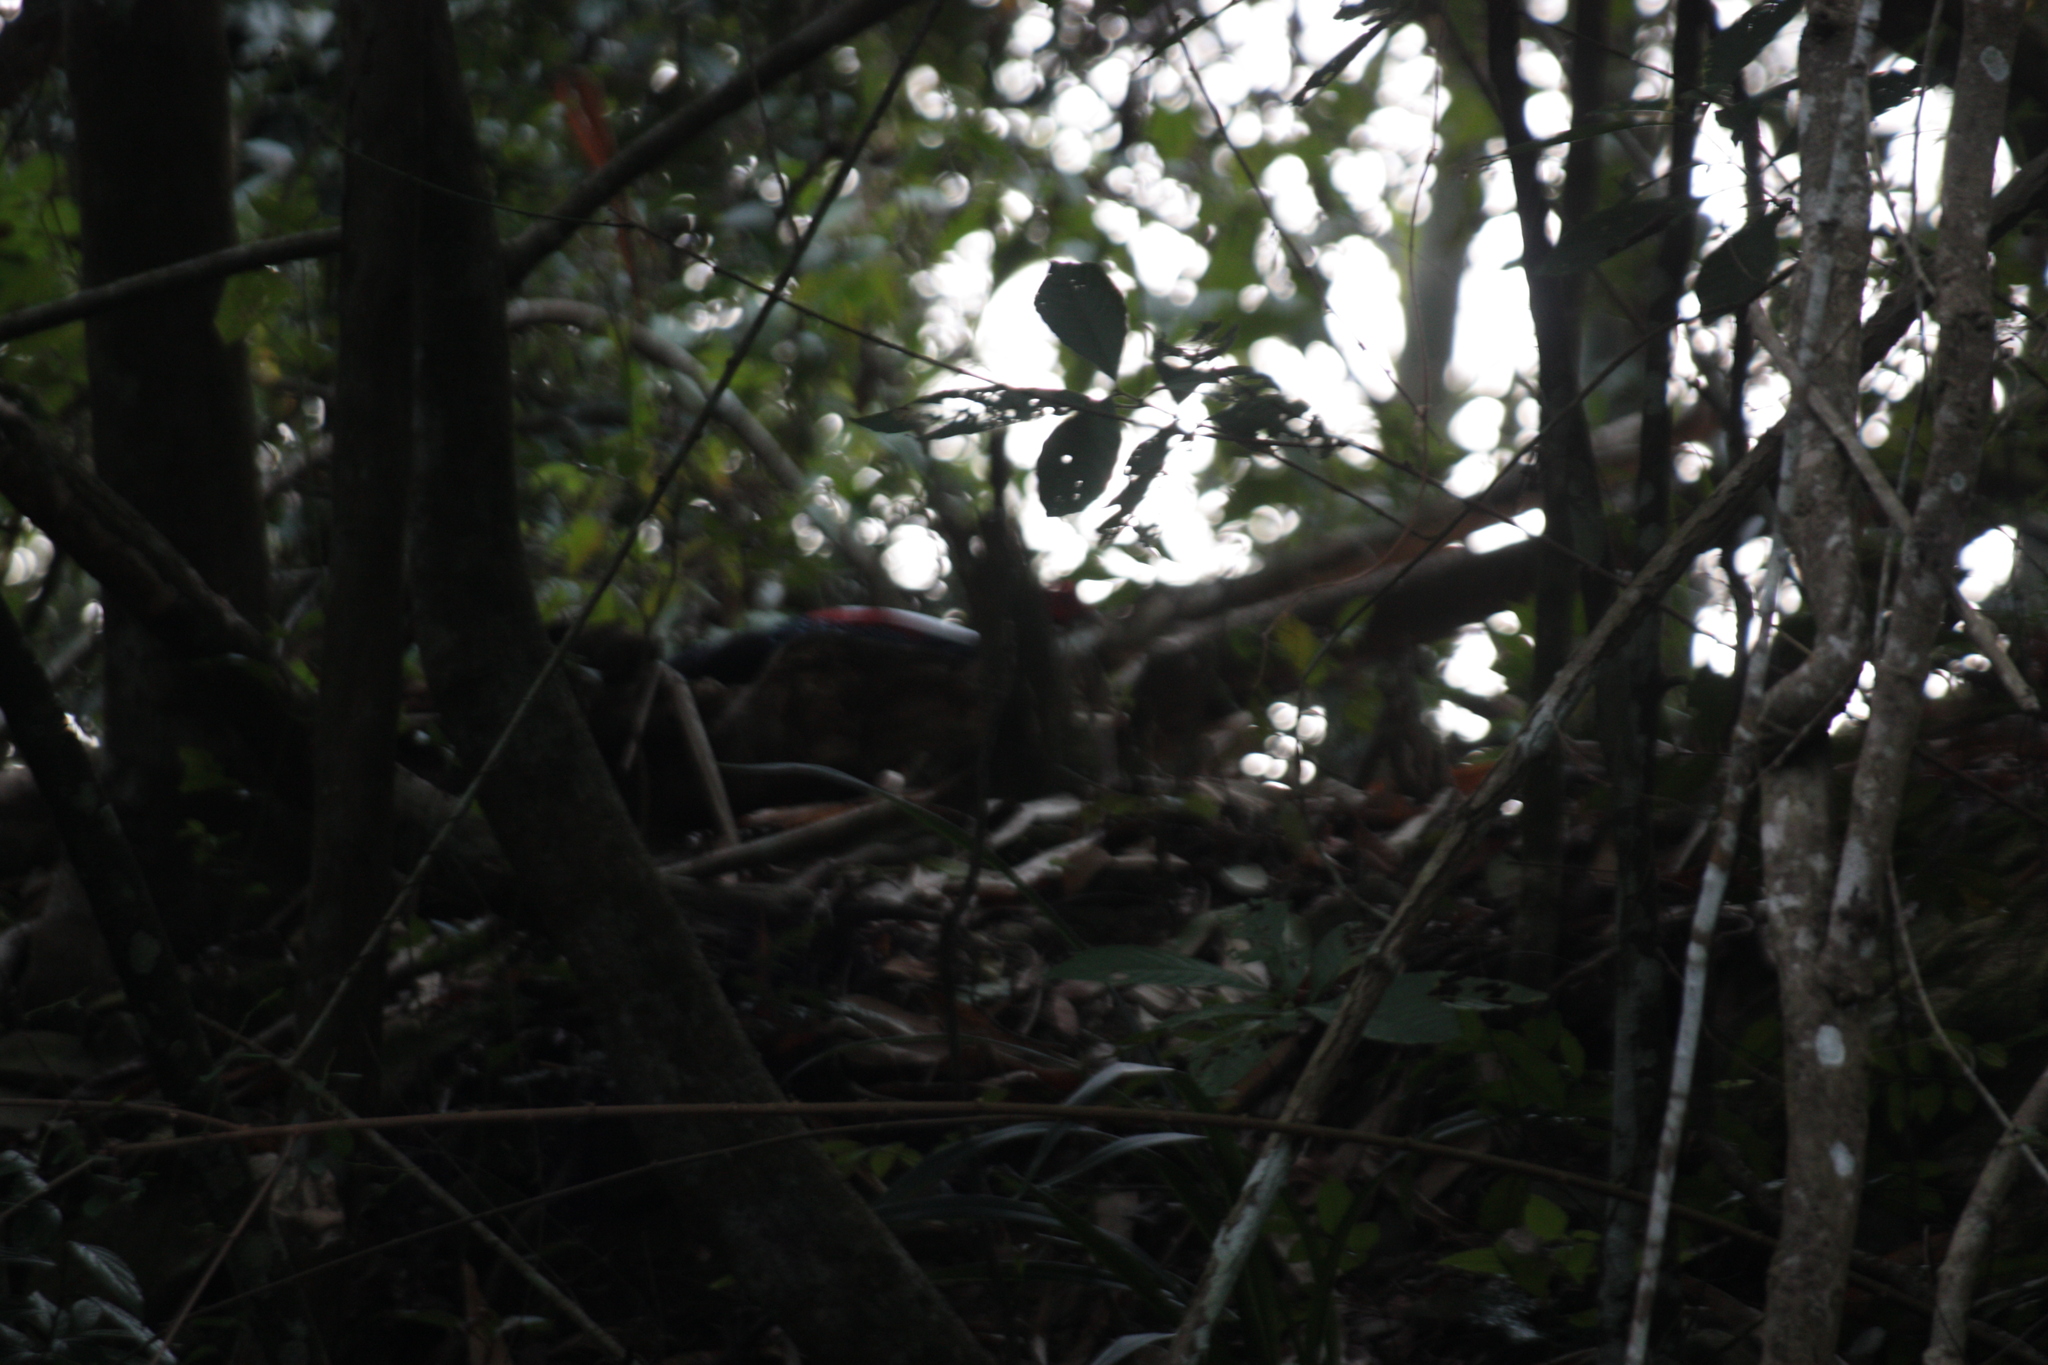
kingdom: Animalia
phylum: Chordata
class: Aves
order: Galliformes
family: Phasianidae
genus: Lophura
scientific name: Lophura swinhoii
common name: Swinhoe's pheasant
